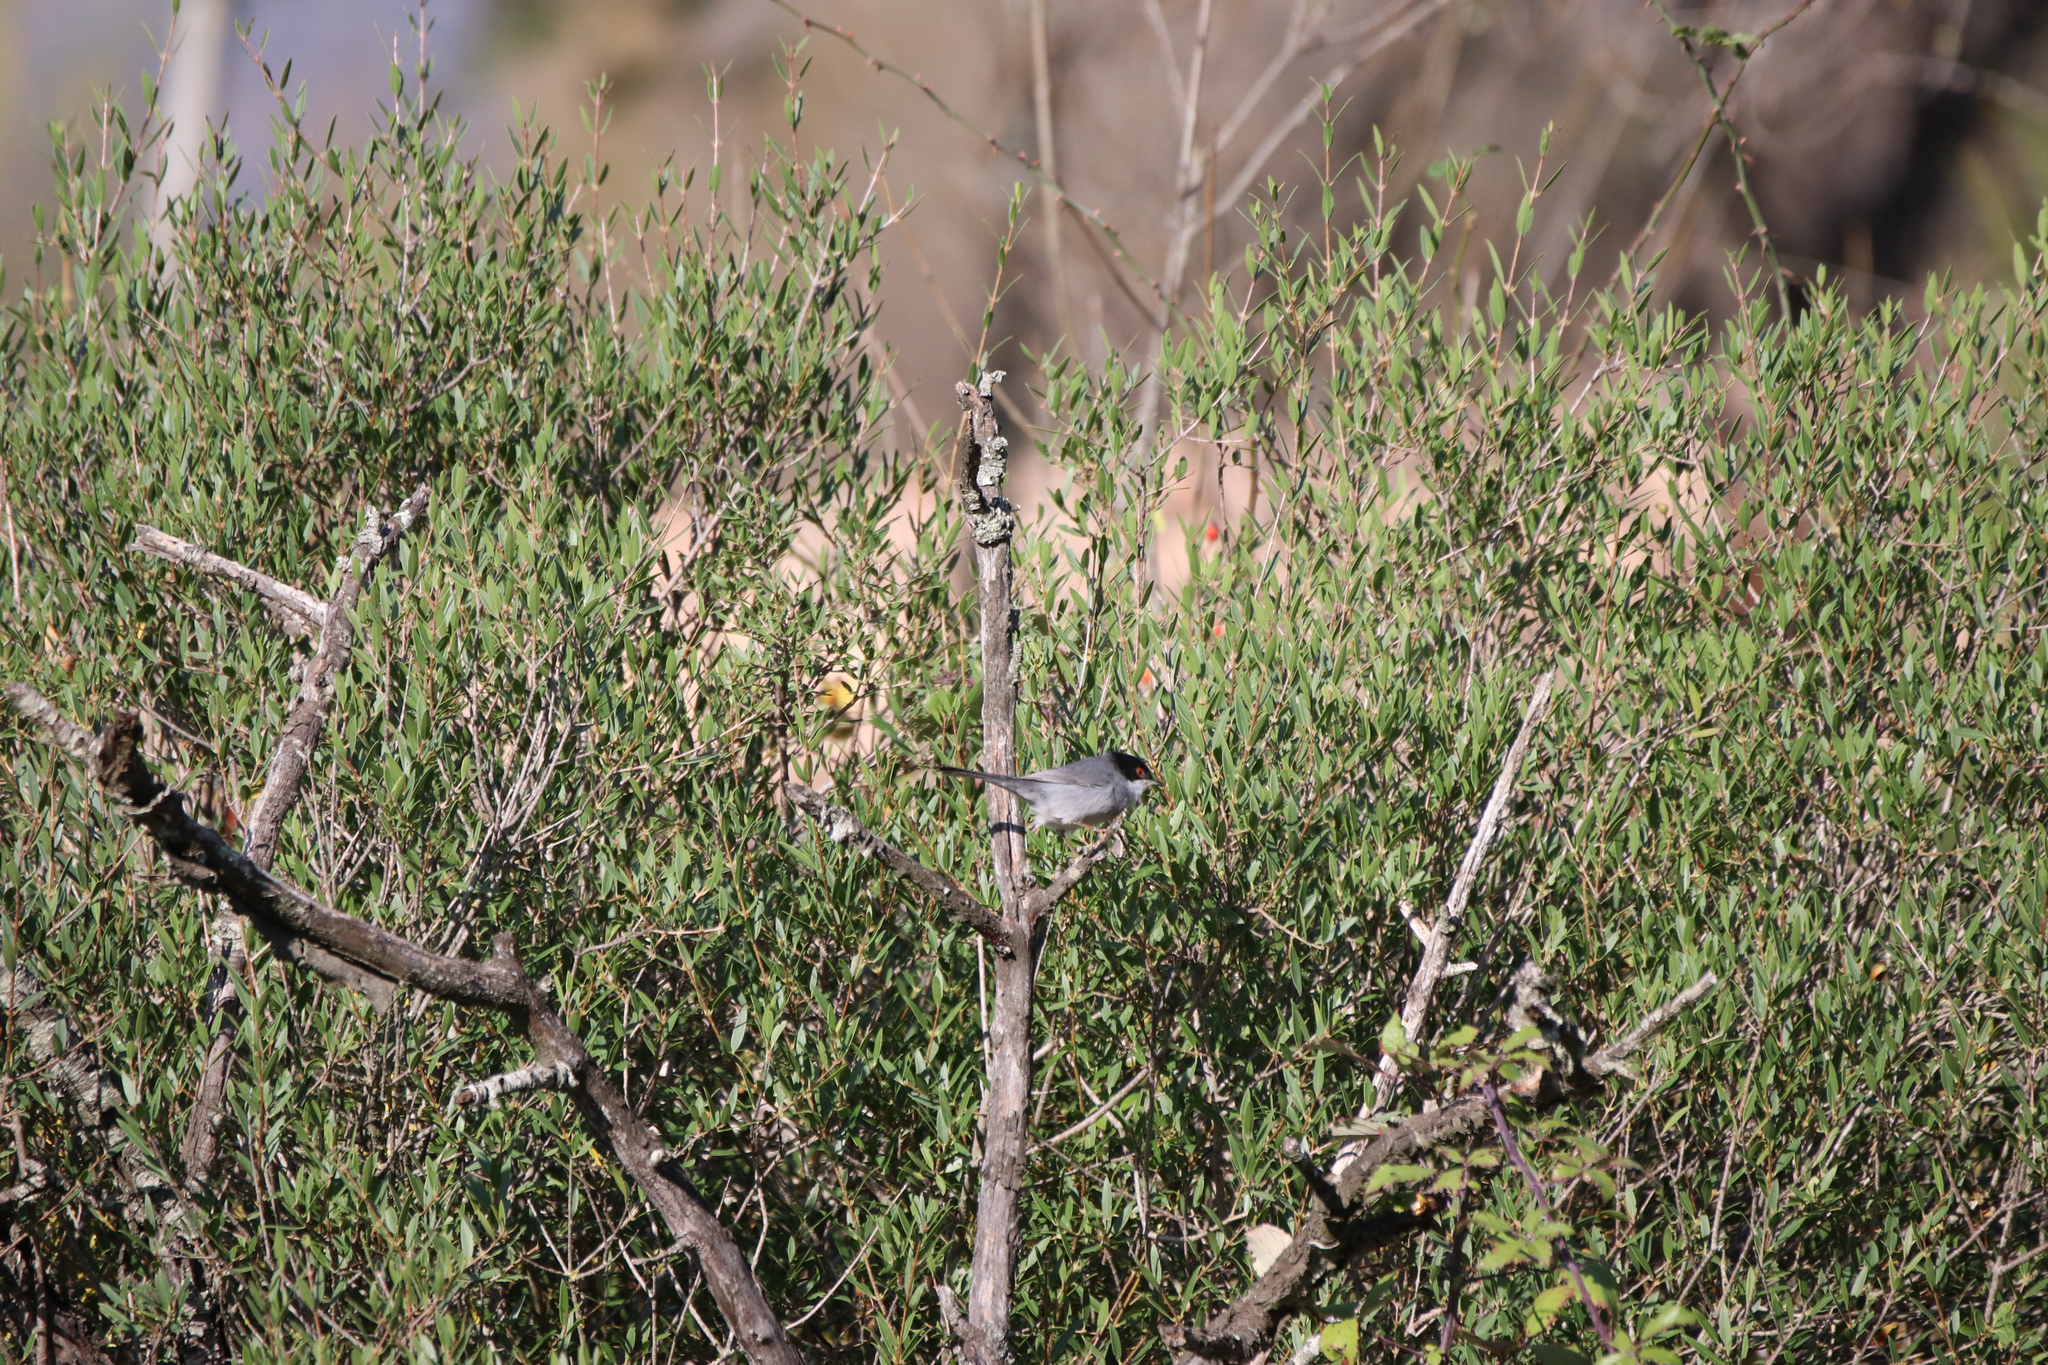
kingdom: Animalia
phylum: Chordata
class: Aves
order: Passeriformes
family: Sylviidae
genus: Curruca
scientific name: Curruca melanocephala
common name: Sardinian warbler
